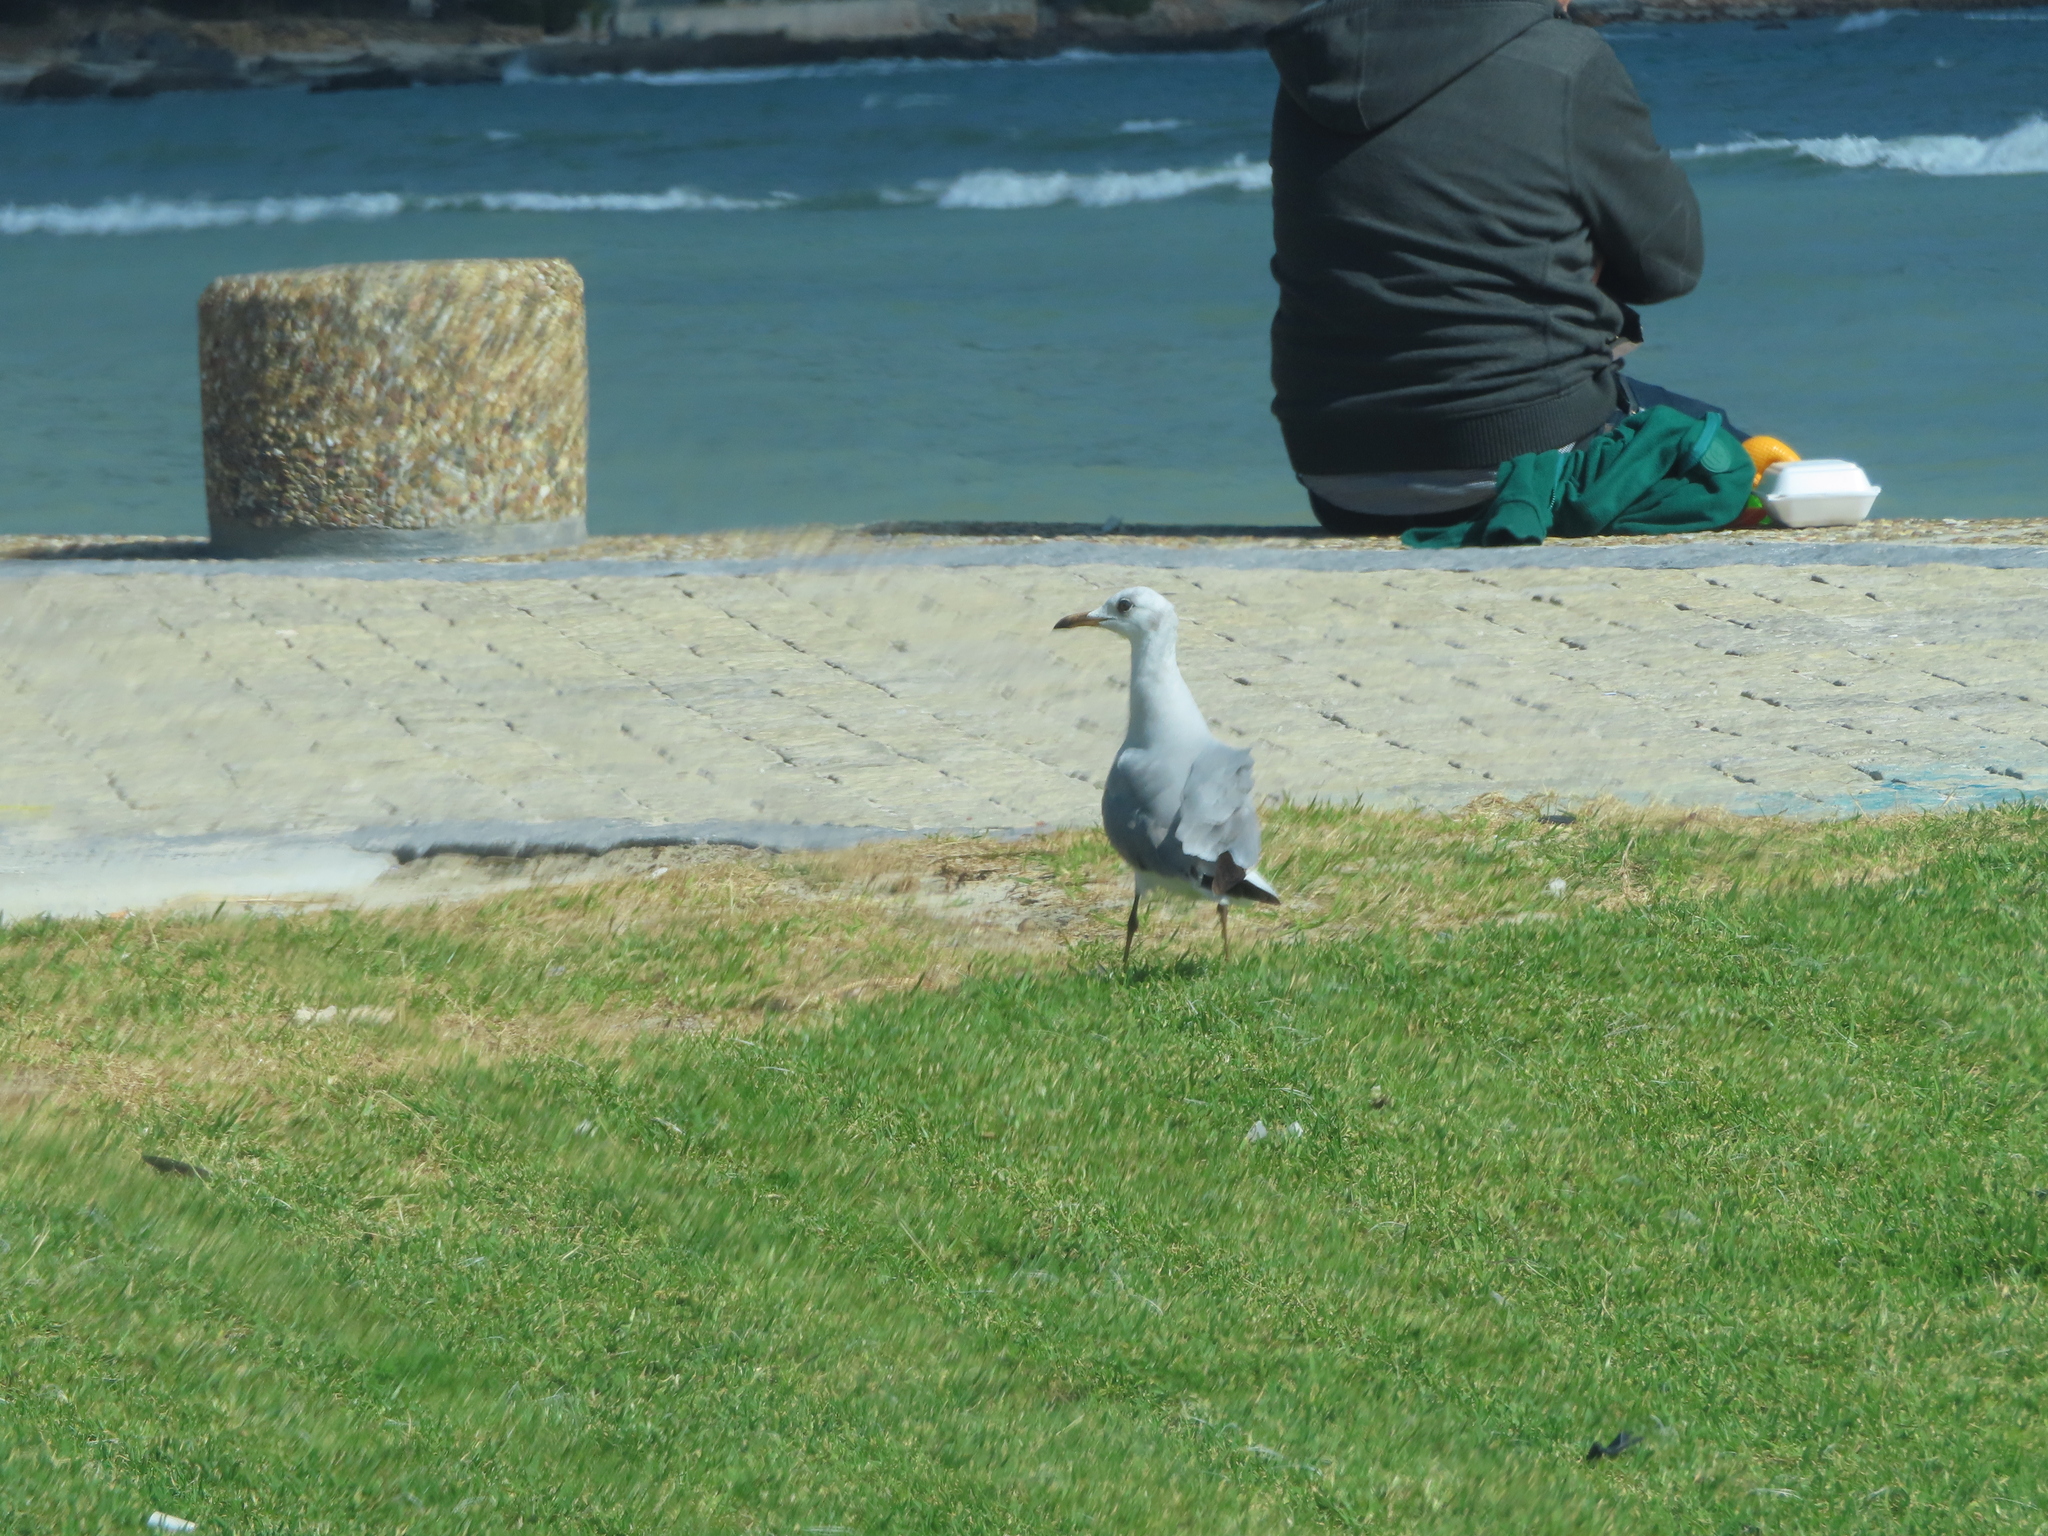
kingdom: Animalia
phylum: Chordata
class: Aves
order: Charadriiformes
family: Laridae
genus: Chroicocephalus
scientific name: Chroicocephalus cirrocephalus
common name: Grey-headed gull
